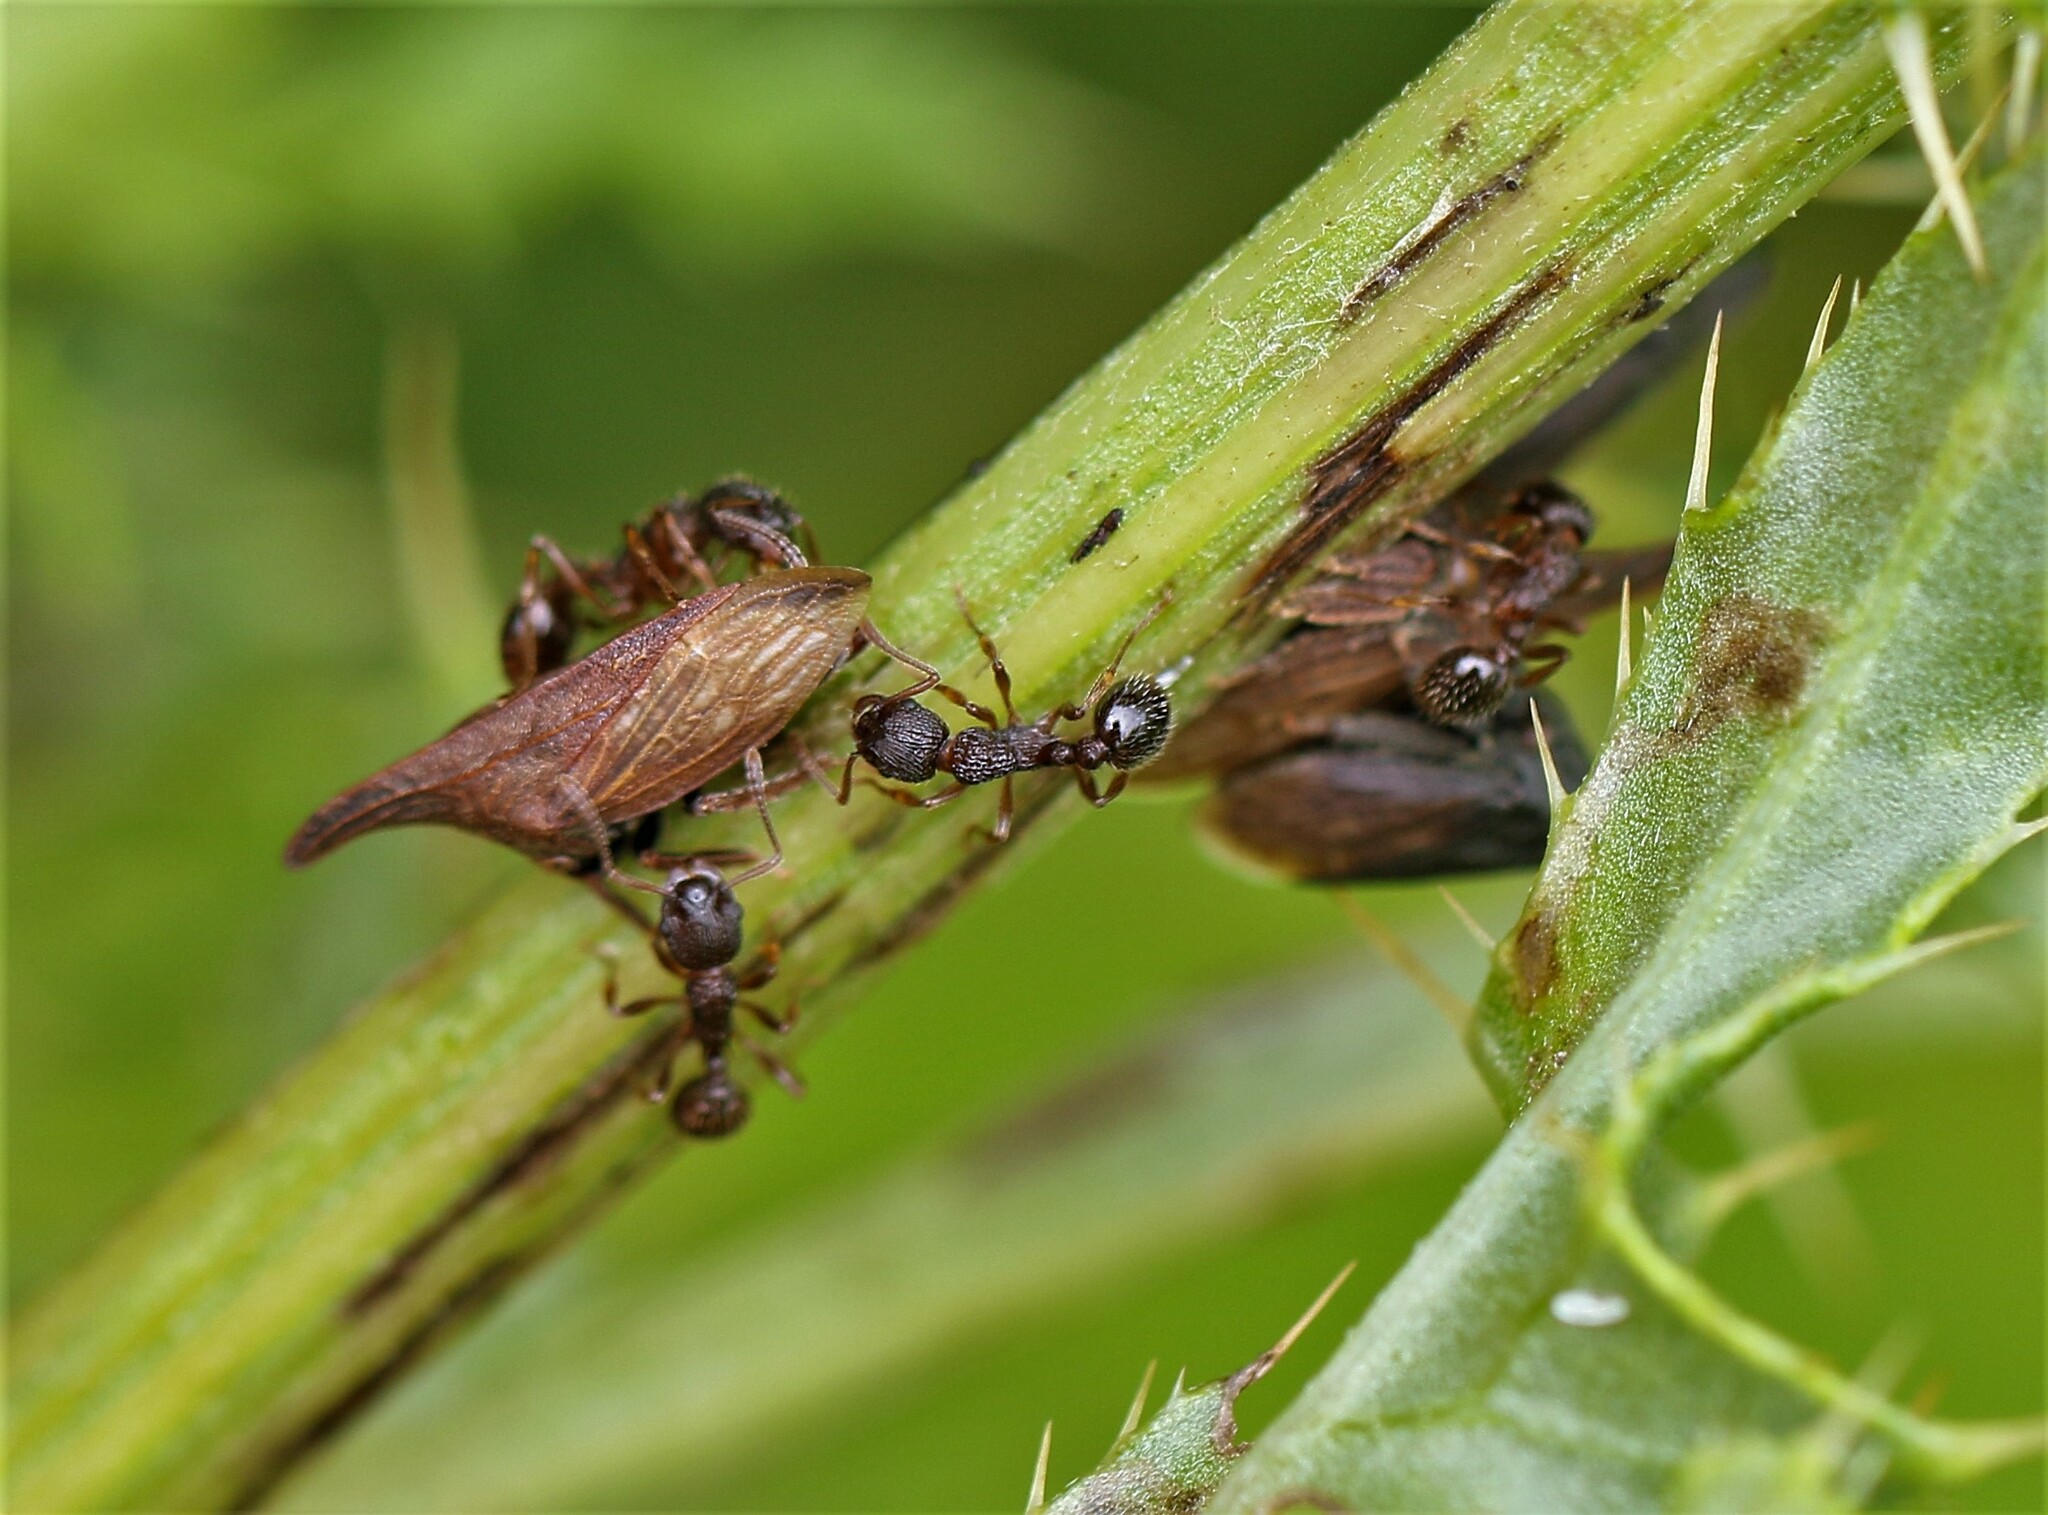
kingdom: Animalia
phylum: Arthropoda
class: Insecta
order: Hemiptera
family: Membracidae
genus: Enchenopa
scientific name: Enchenopa latipes
